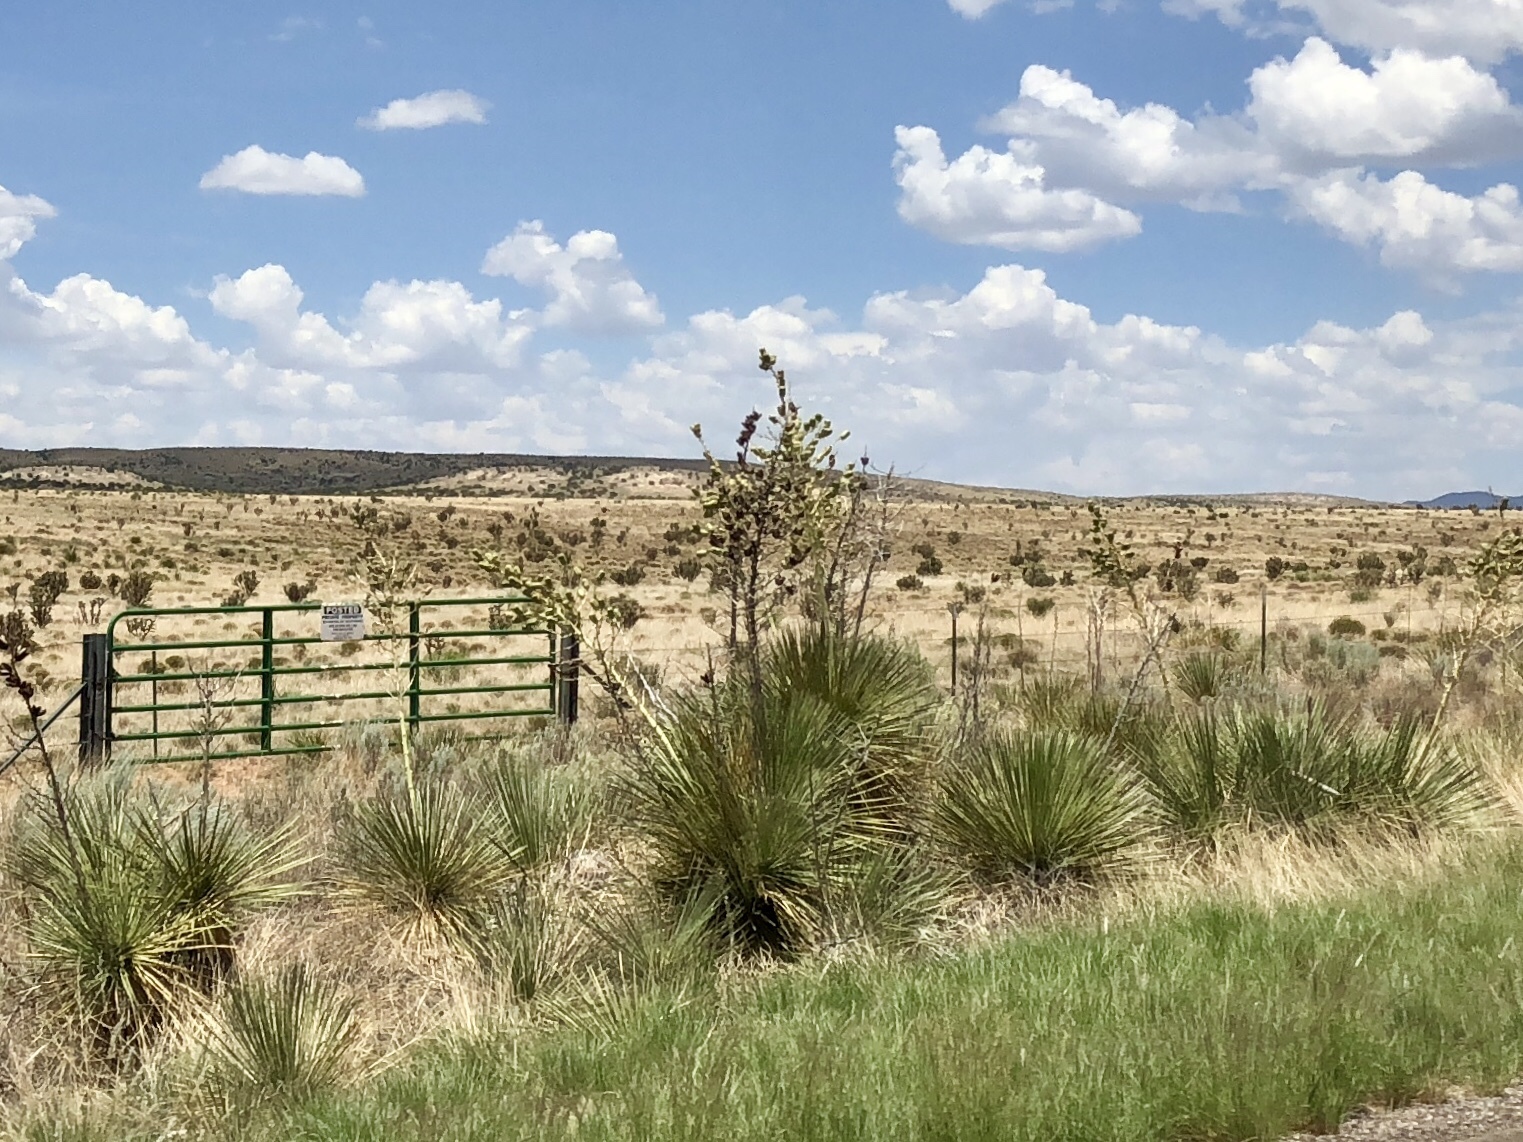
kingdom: Plantae
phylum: Tracheophyta
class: Liliopsida
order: Asparagales
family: Asparagaceae
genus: Yucca
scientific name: Yucca elata
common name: Palmella
